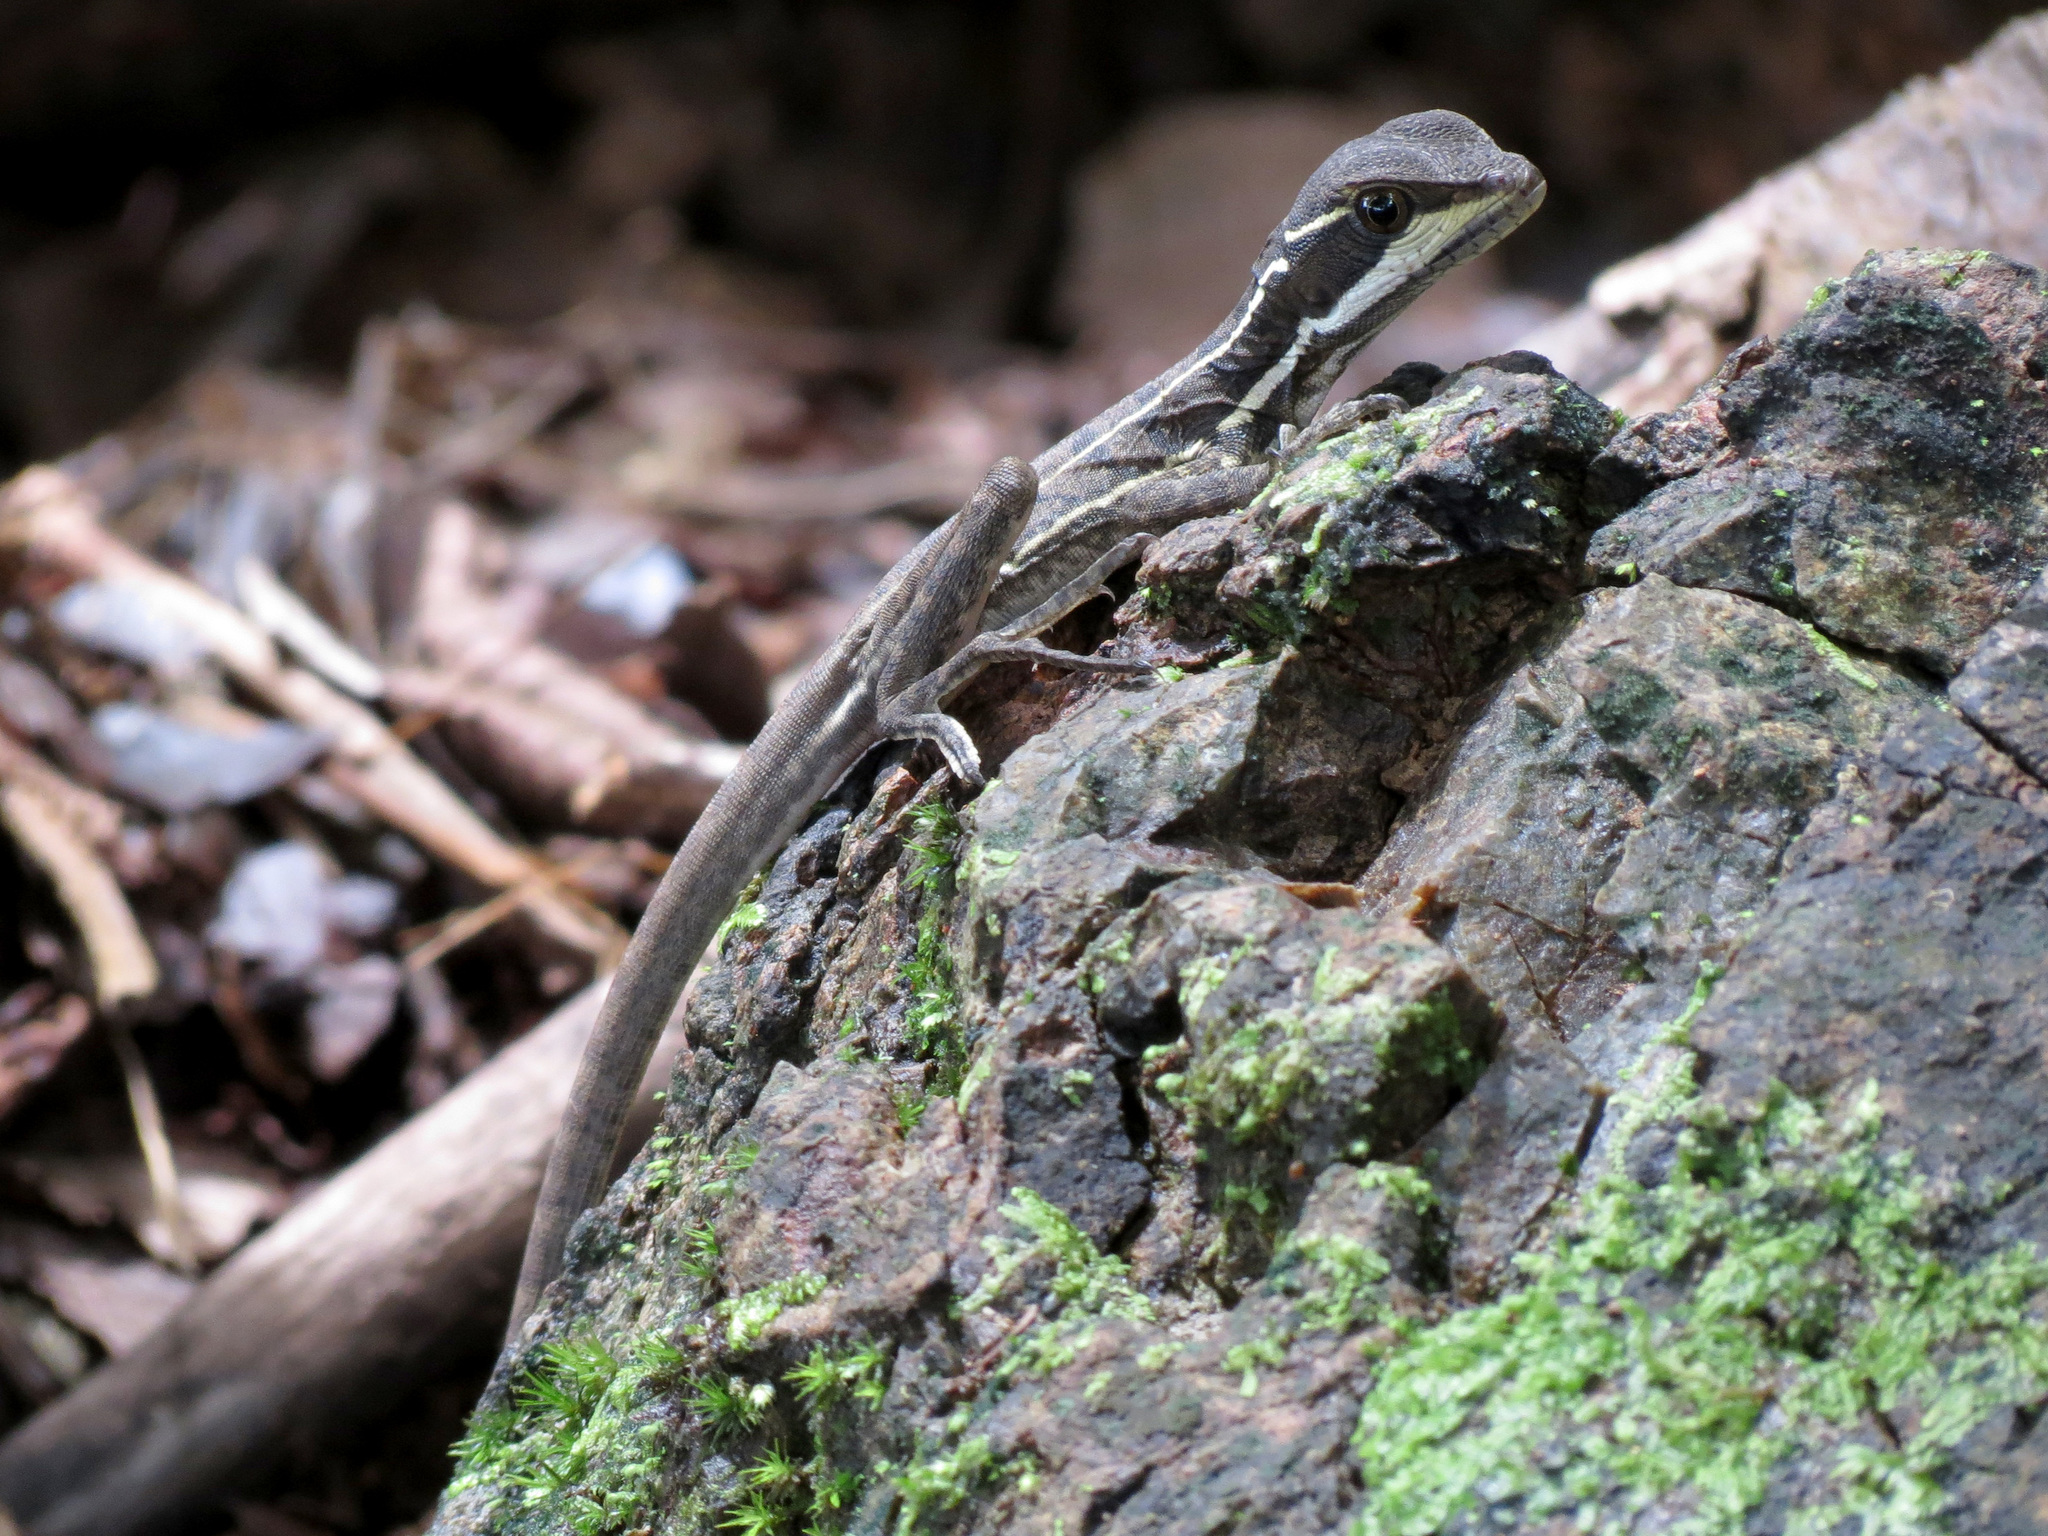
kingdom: Animalia
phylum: Chordata
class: Squamata
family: Corytophanidae
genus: Basiliscus
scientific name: Basiliscus basiliscus
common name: Common basilisk
